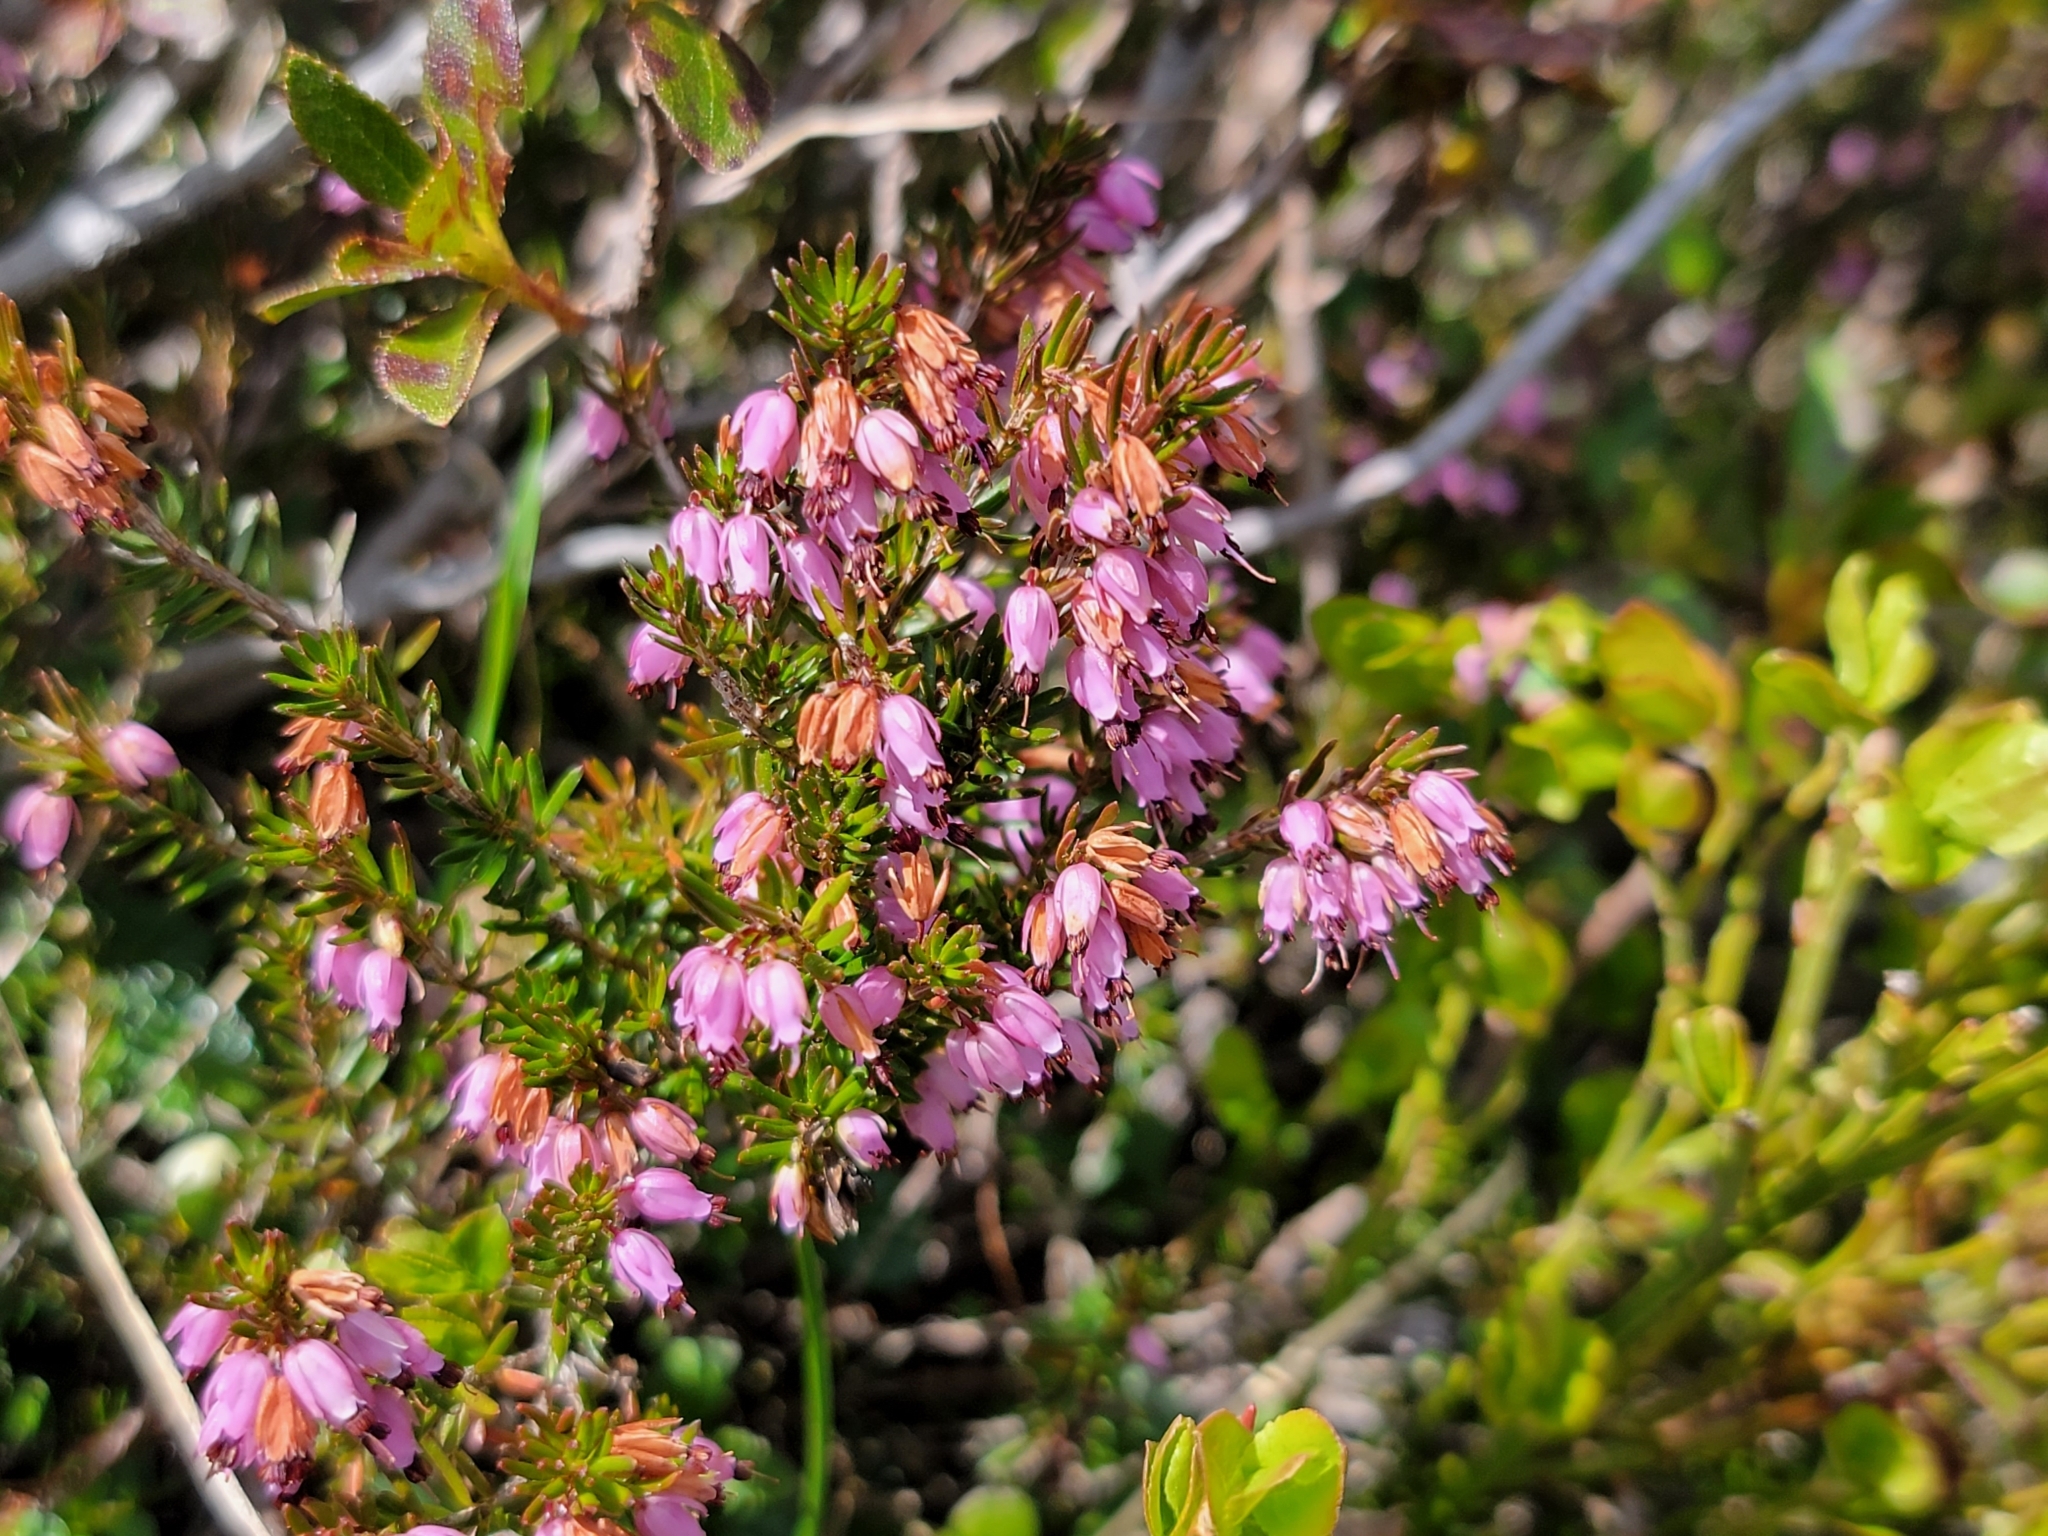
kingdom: Plantae
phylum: Tracheophyta
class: Magnoliopsida
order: Ericales
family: Ericaceae
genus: Erica
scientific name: Erica carnea
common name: Winter heath
